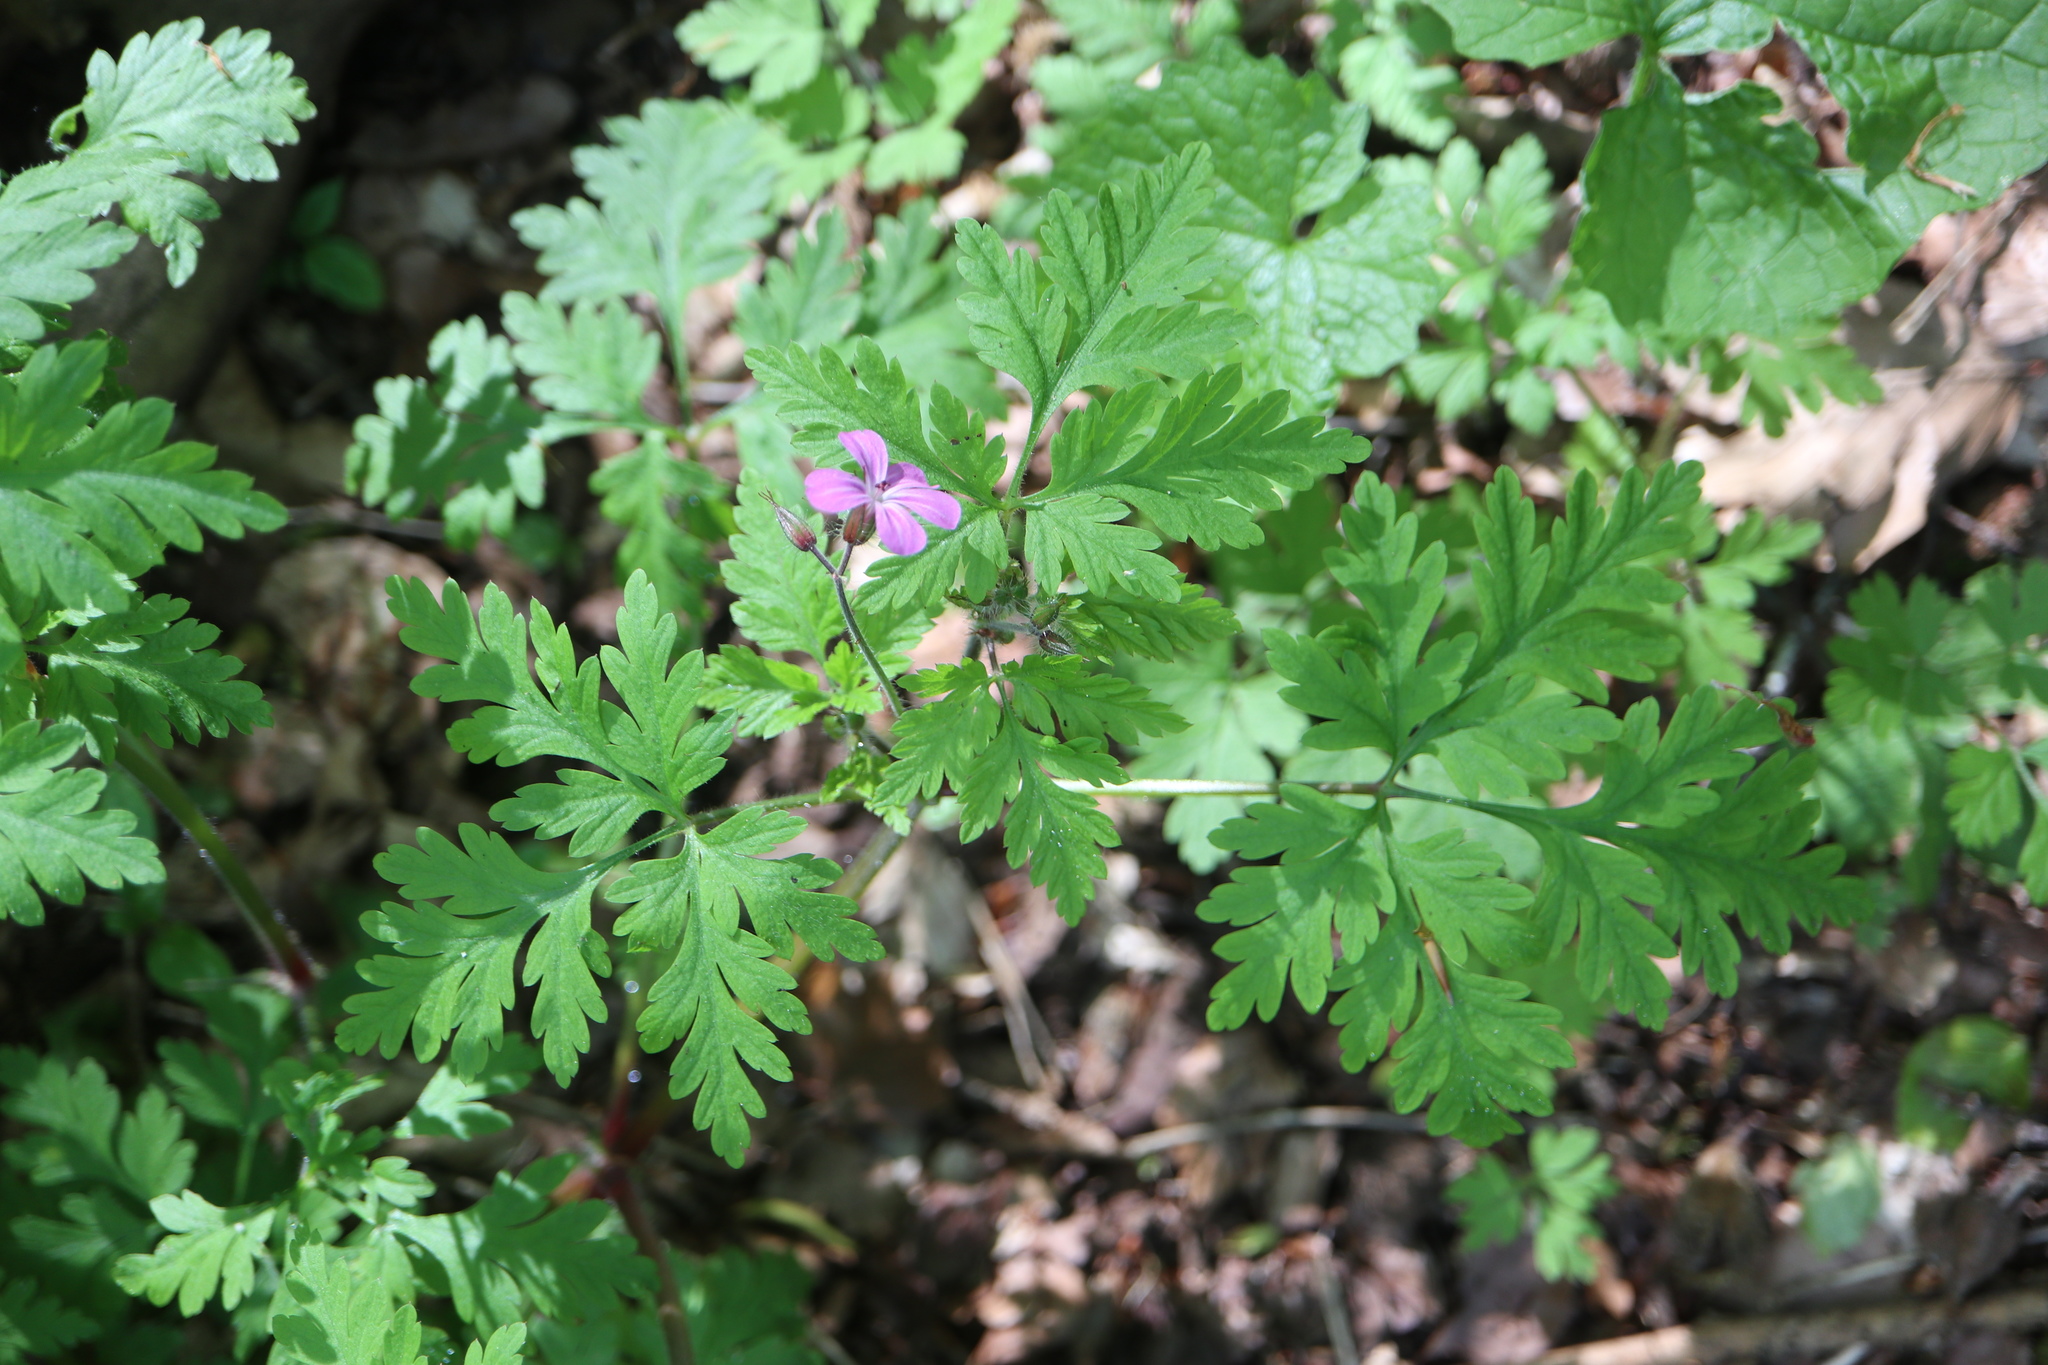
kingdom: Plantae
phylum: Tracheophyta
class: Magnoliopsida
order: Geraniales
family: Geraniaceae
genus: Geranium
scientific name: Geranium robertianum
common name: Herb-robert
